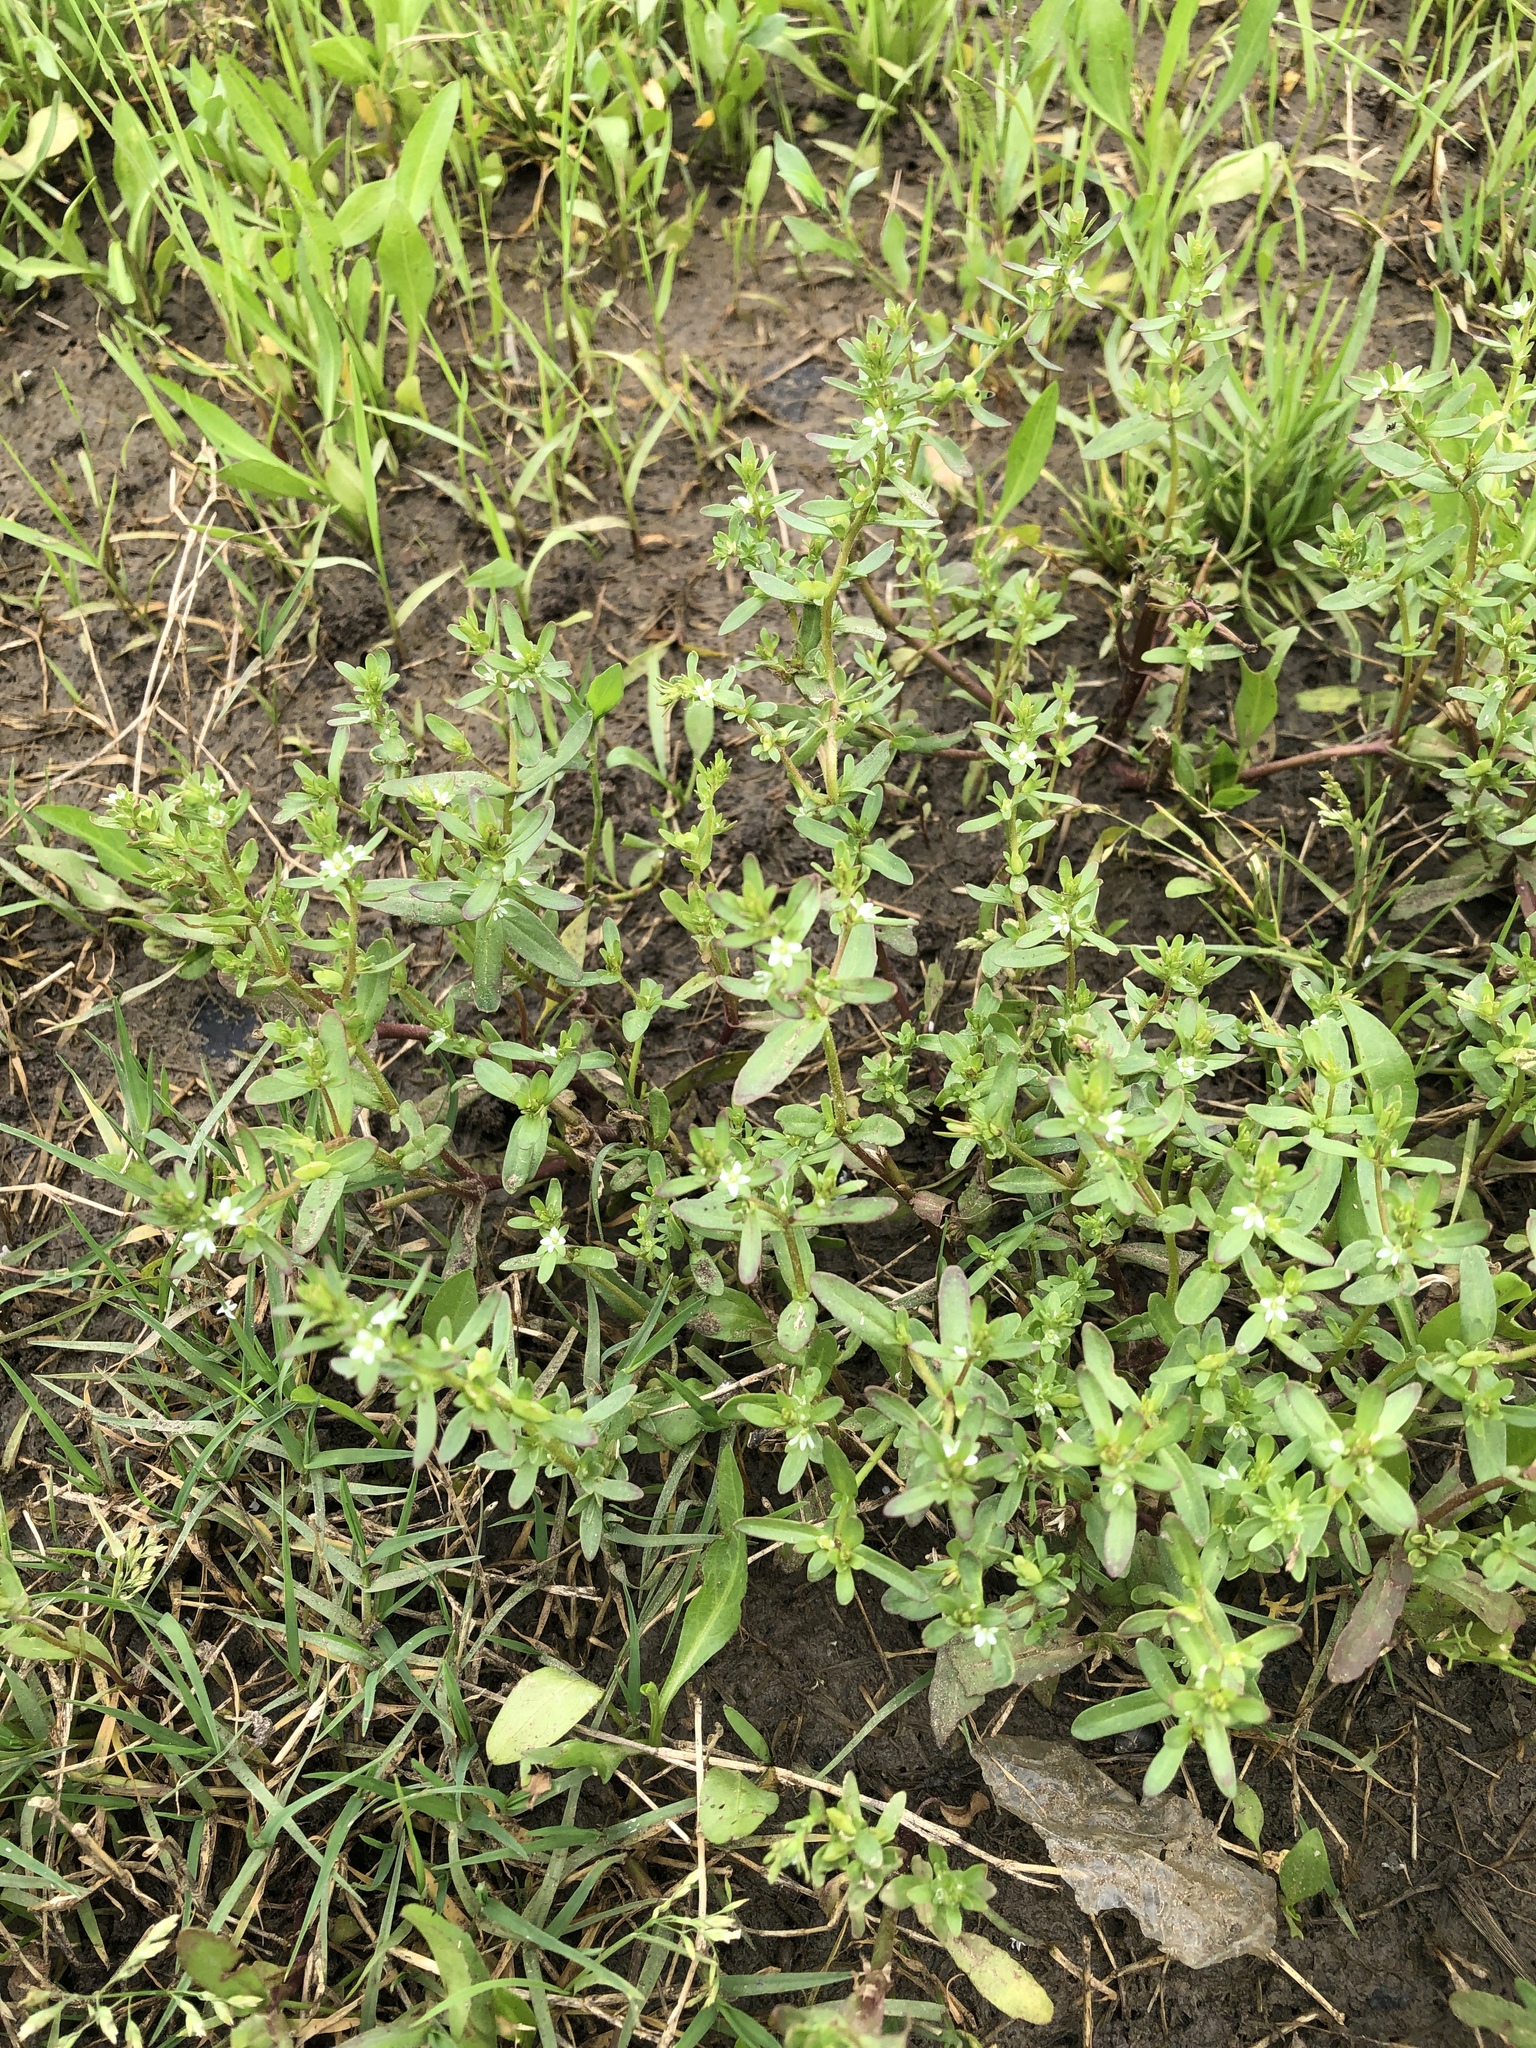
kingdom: Plantae
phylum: Tracheophyta
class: Magnoliopsida
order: Lamiales
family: Plantaginaceae
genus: Veronica
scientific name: Veronica peregrina
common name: Neckweed
